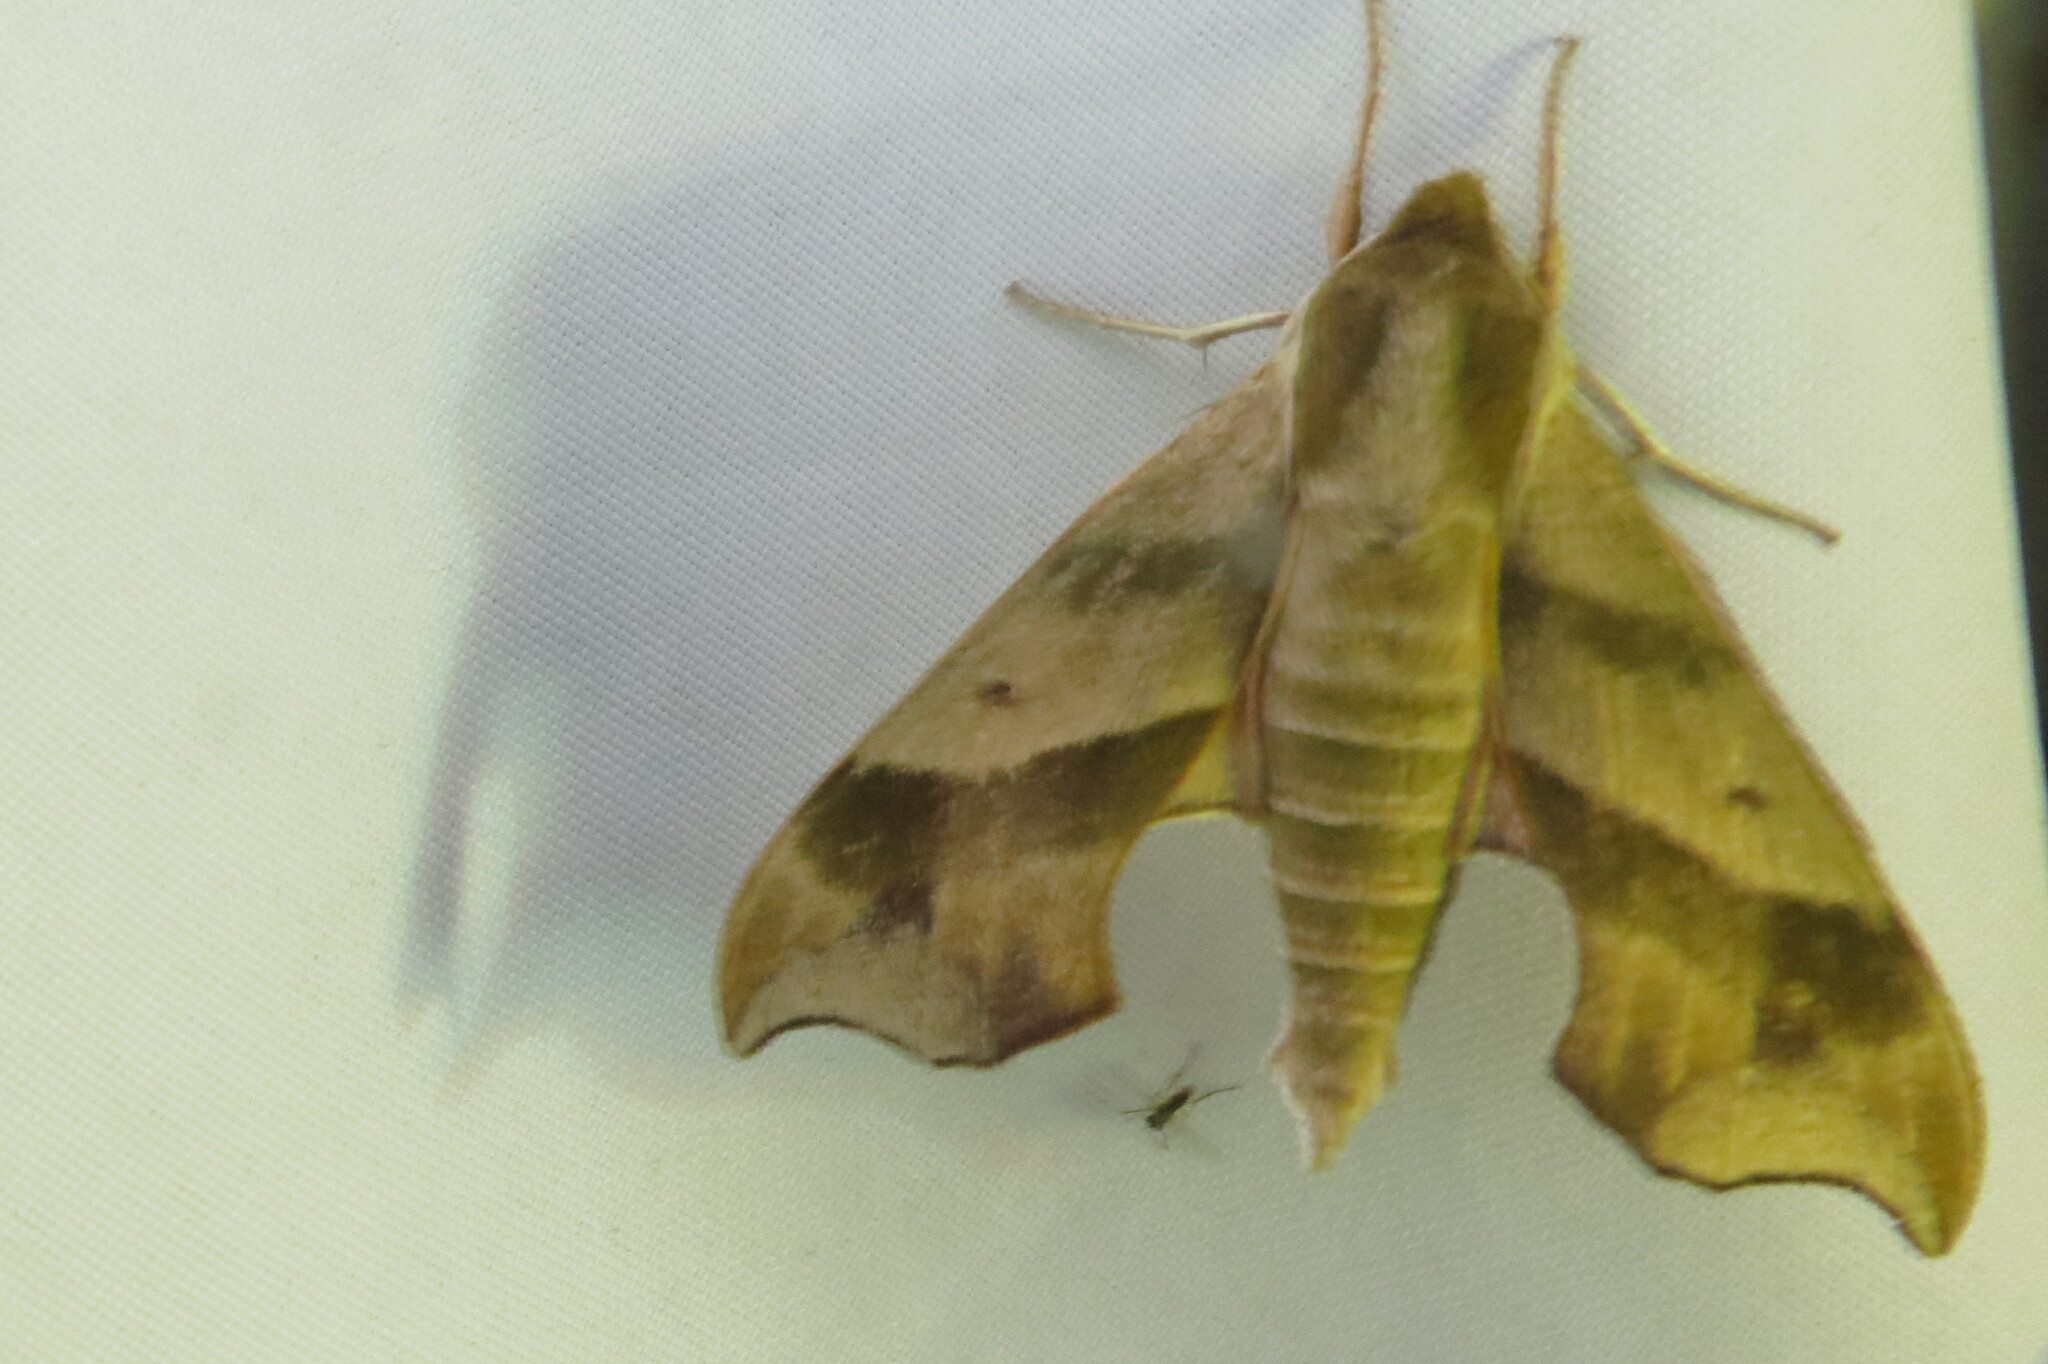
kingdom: Animalia
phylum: Arthropoda
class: Insecta
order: Lepidoptera
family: Sphingidae
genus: Darapsa
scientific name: Darapsa myron
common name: Hog sphinx
